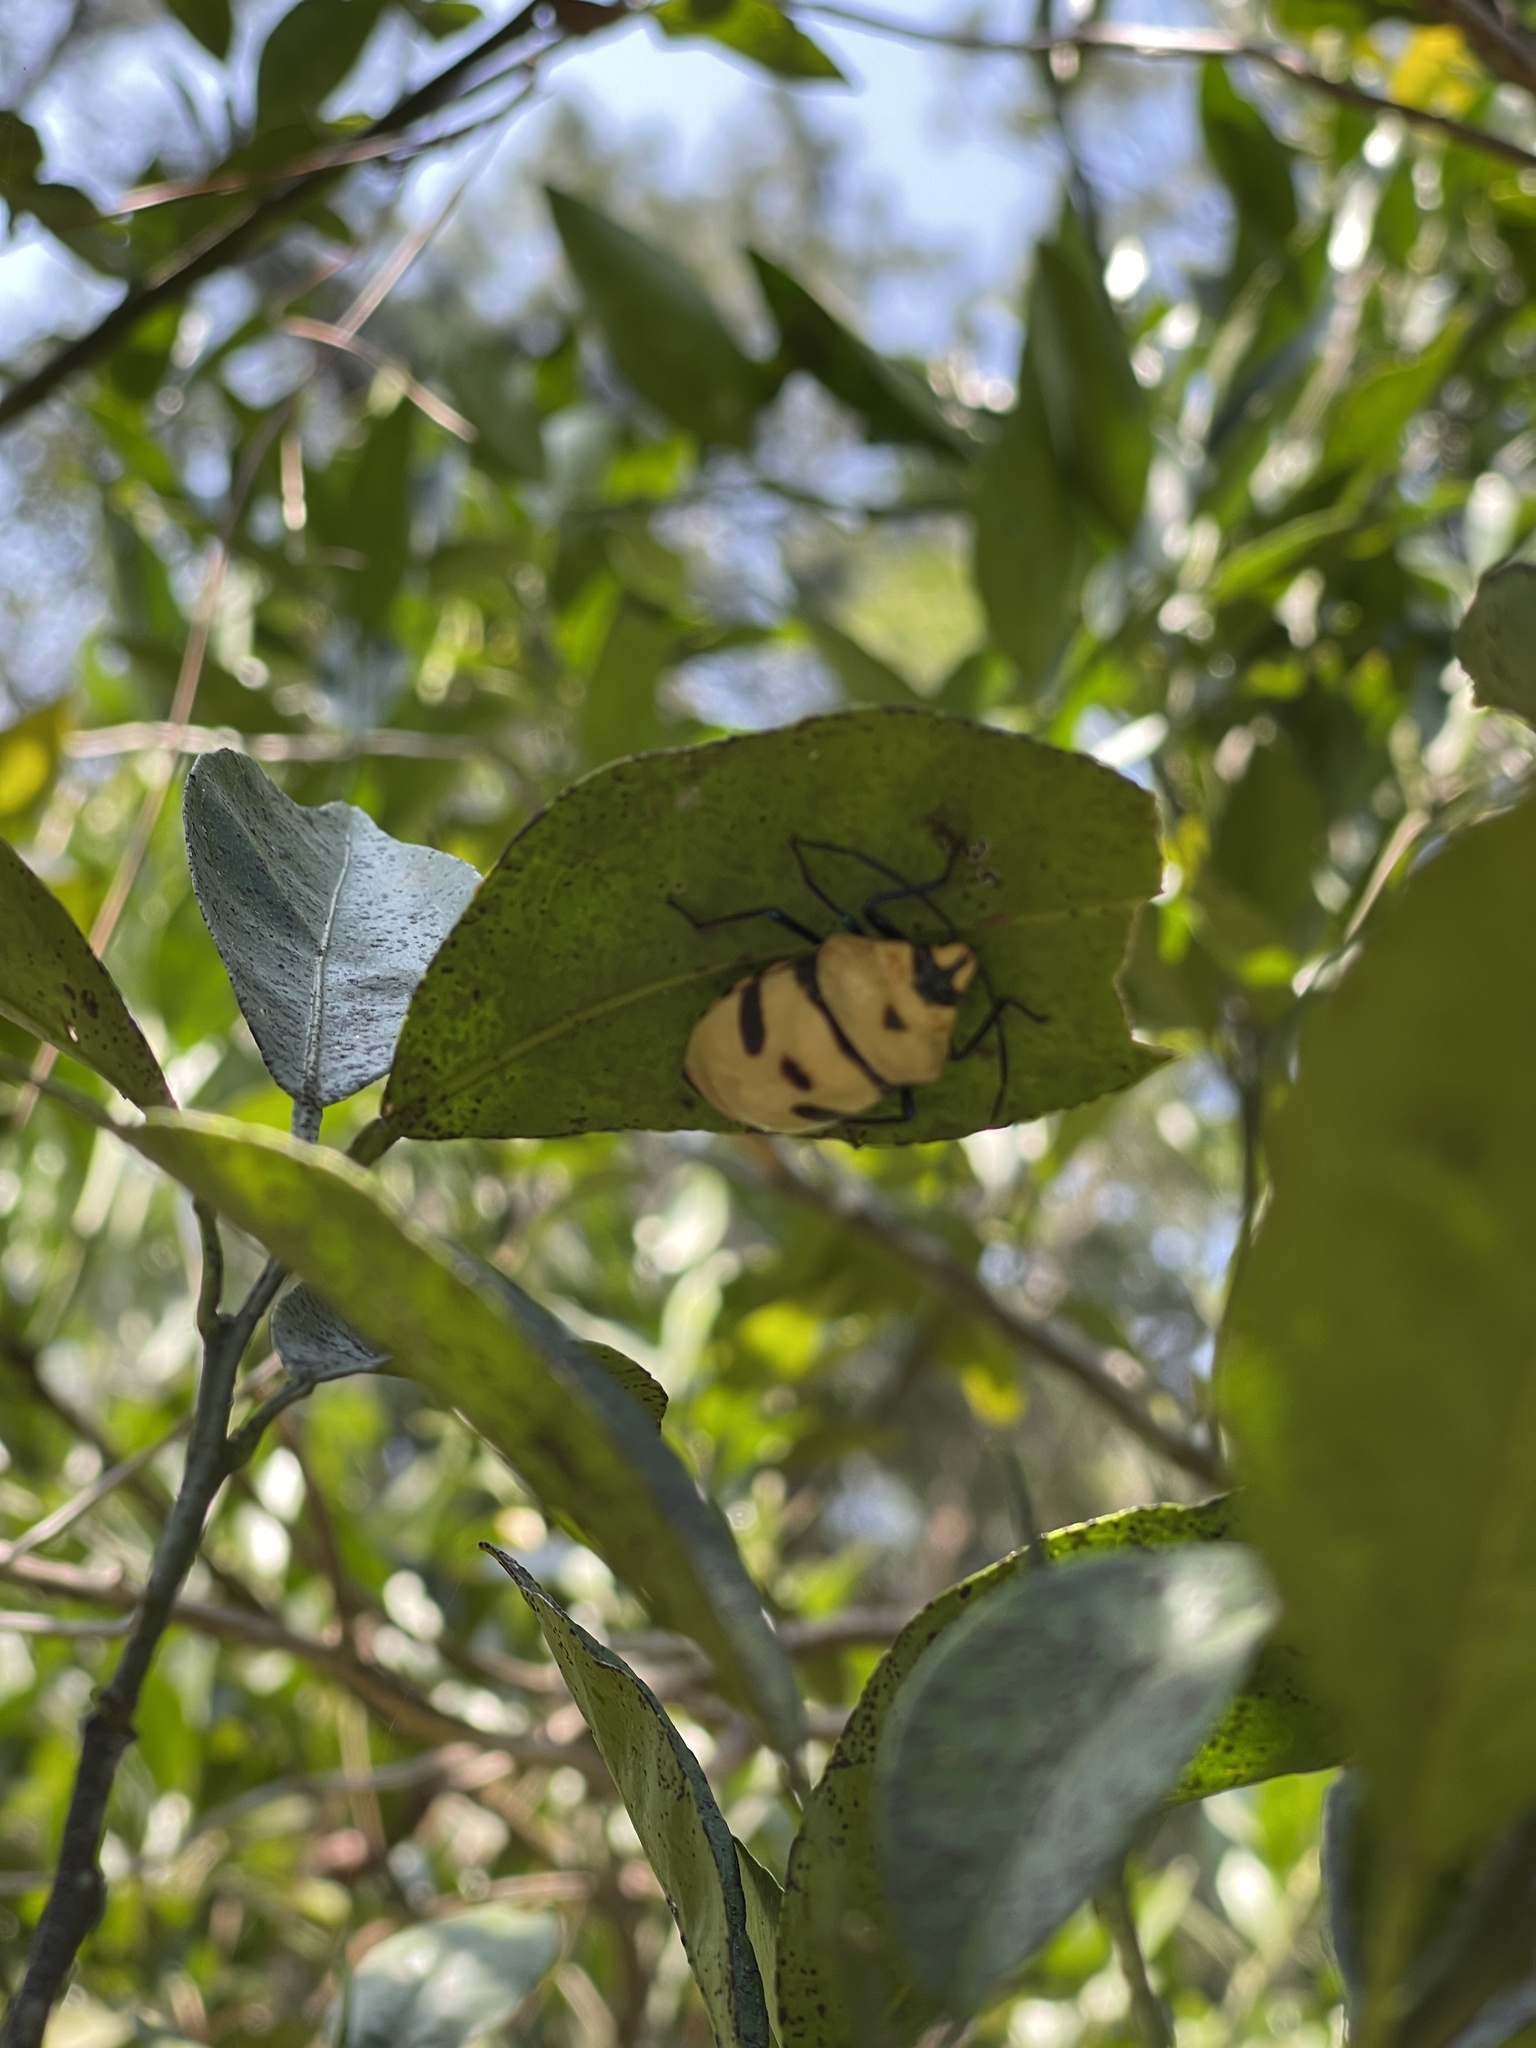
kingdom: Animalia
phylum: Arthropoda
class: Insecta
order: Hemiptera
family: Scutelleridae
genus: Eucorysses
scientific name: Eucorysses grandis
